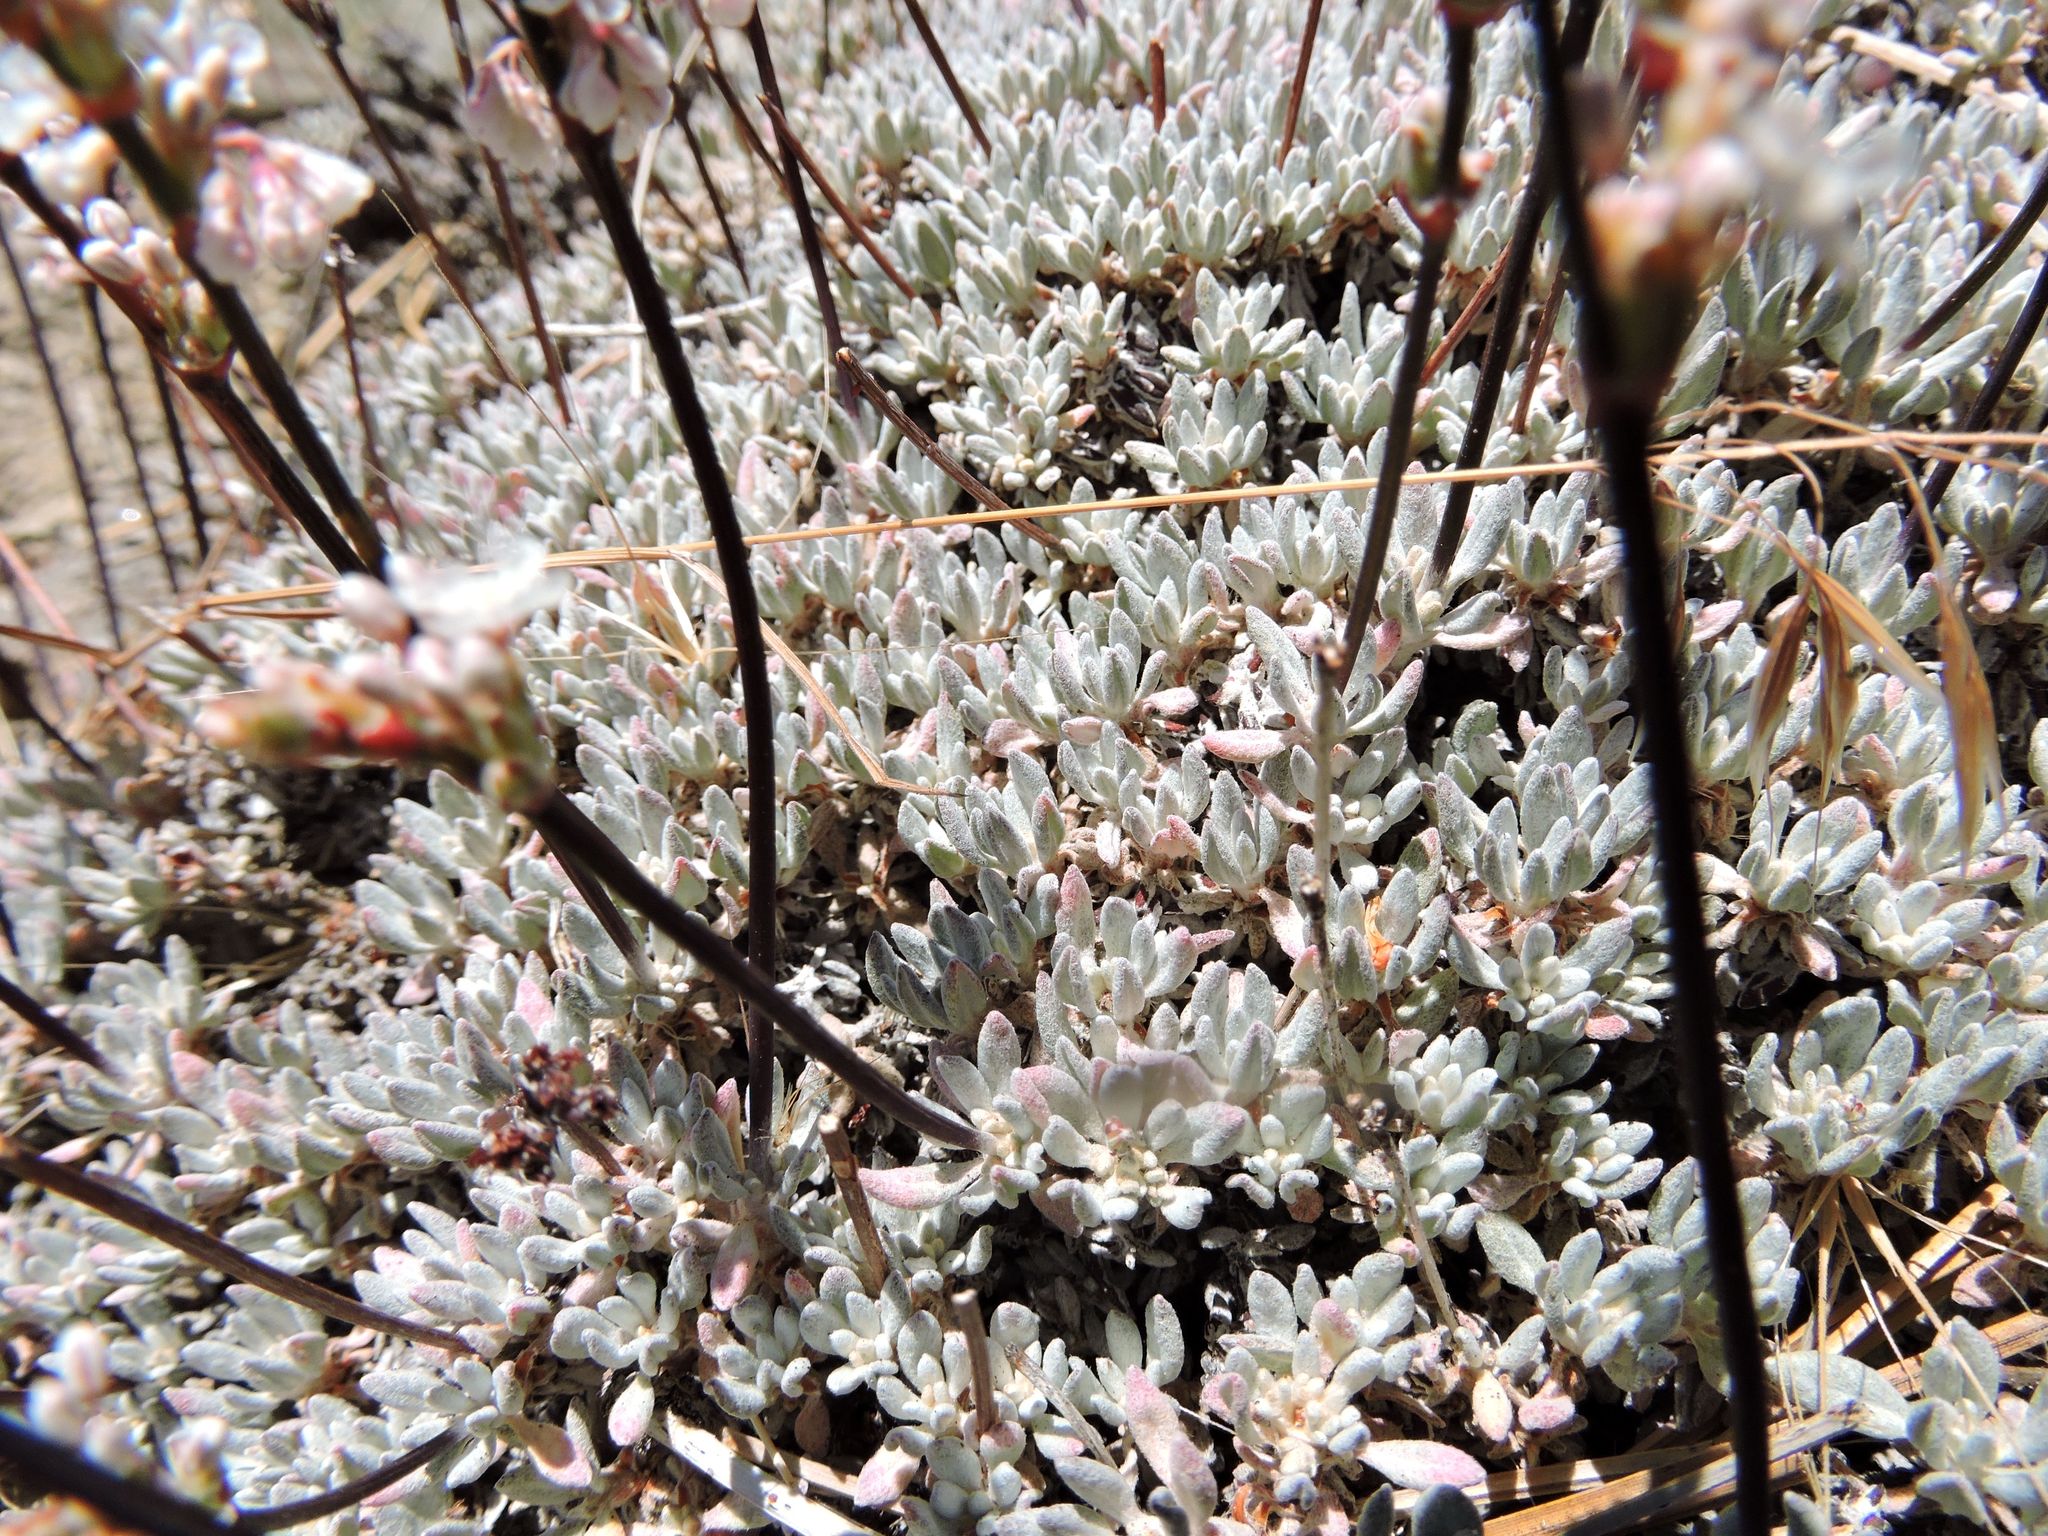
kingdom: Plantae
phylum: Tracheophyta
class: Magnoliopsida
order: Caryophyllales
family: Polygonaceae
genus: Eriogonum
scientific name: Eriogonum wrightii
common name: Bastard-sage
